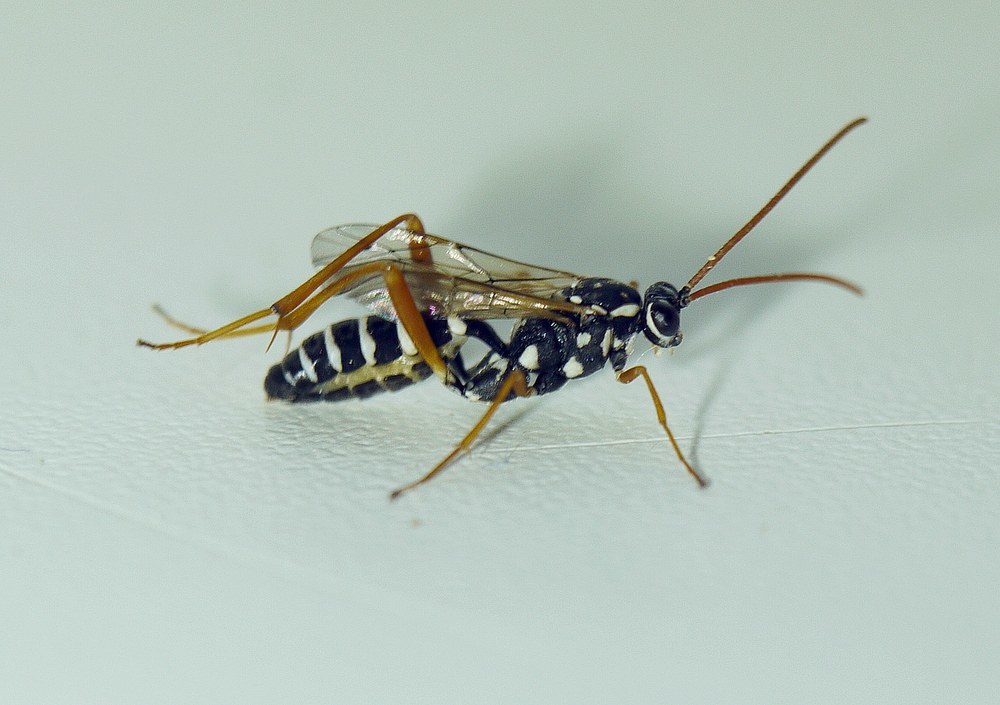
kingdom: Animalia
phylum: Arthropoda
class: Insecta
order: Hymenoptera
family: Ichneumonidae
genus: Latibulus
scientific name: Latibulus argiolus
